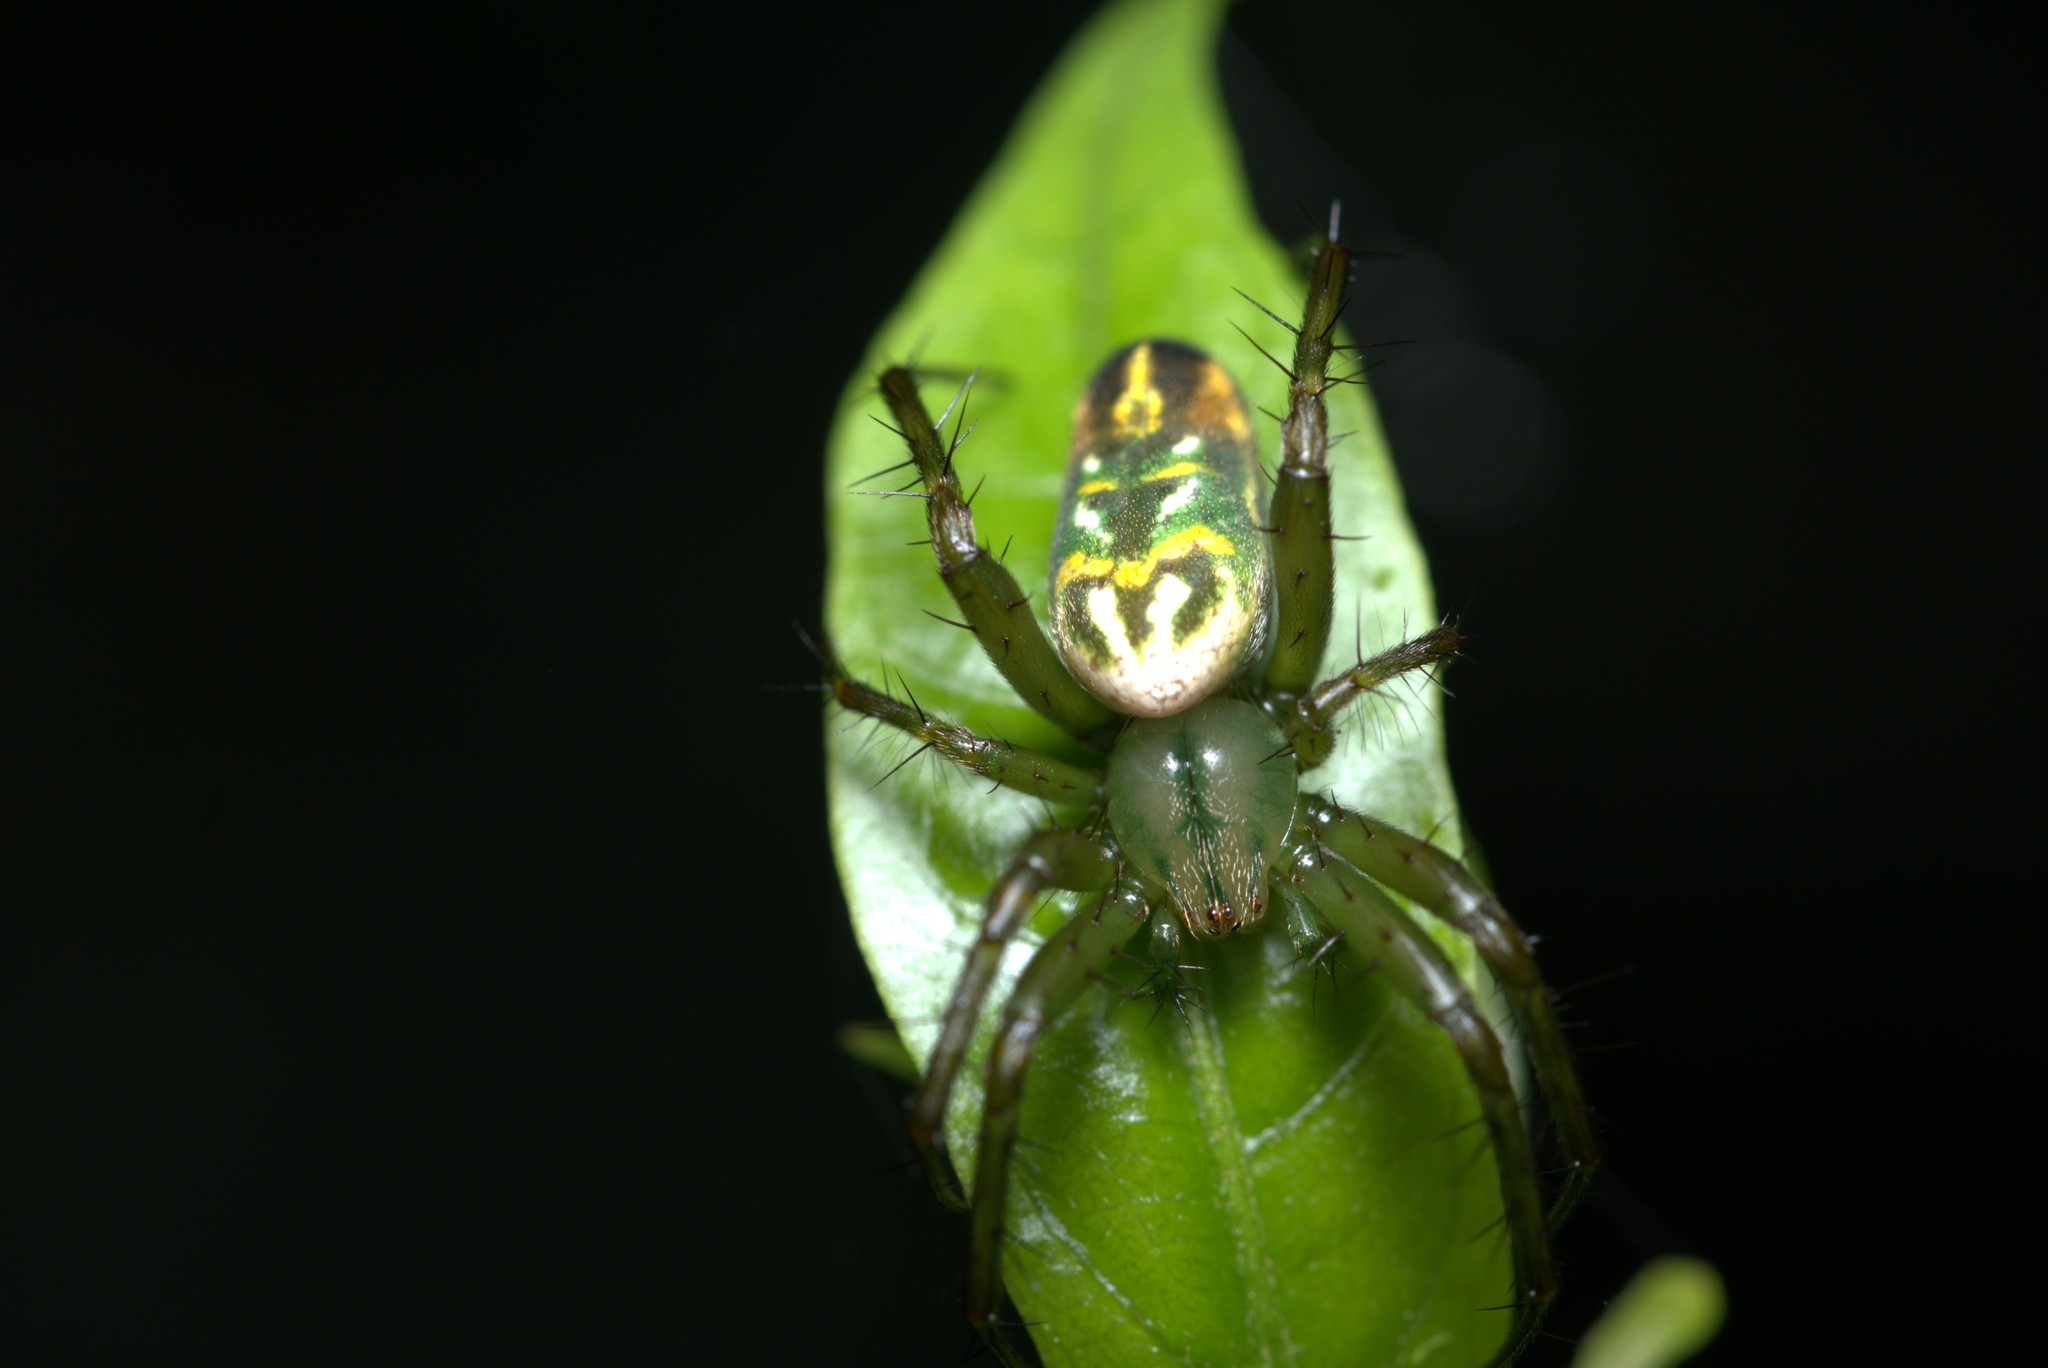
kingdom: Animalia
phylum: Arthropoda
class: Arachnida
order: Araneae
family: Araneidae
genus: Mangora
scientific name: Mangora strenua
